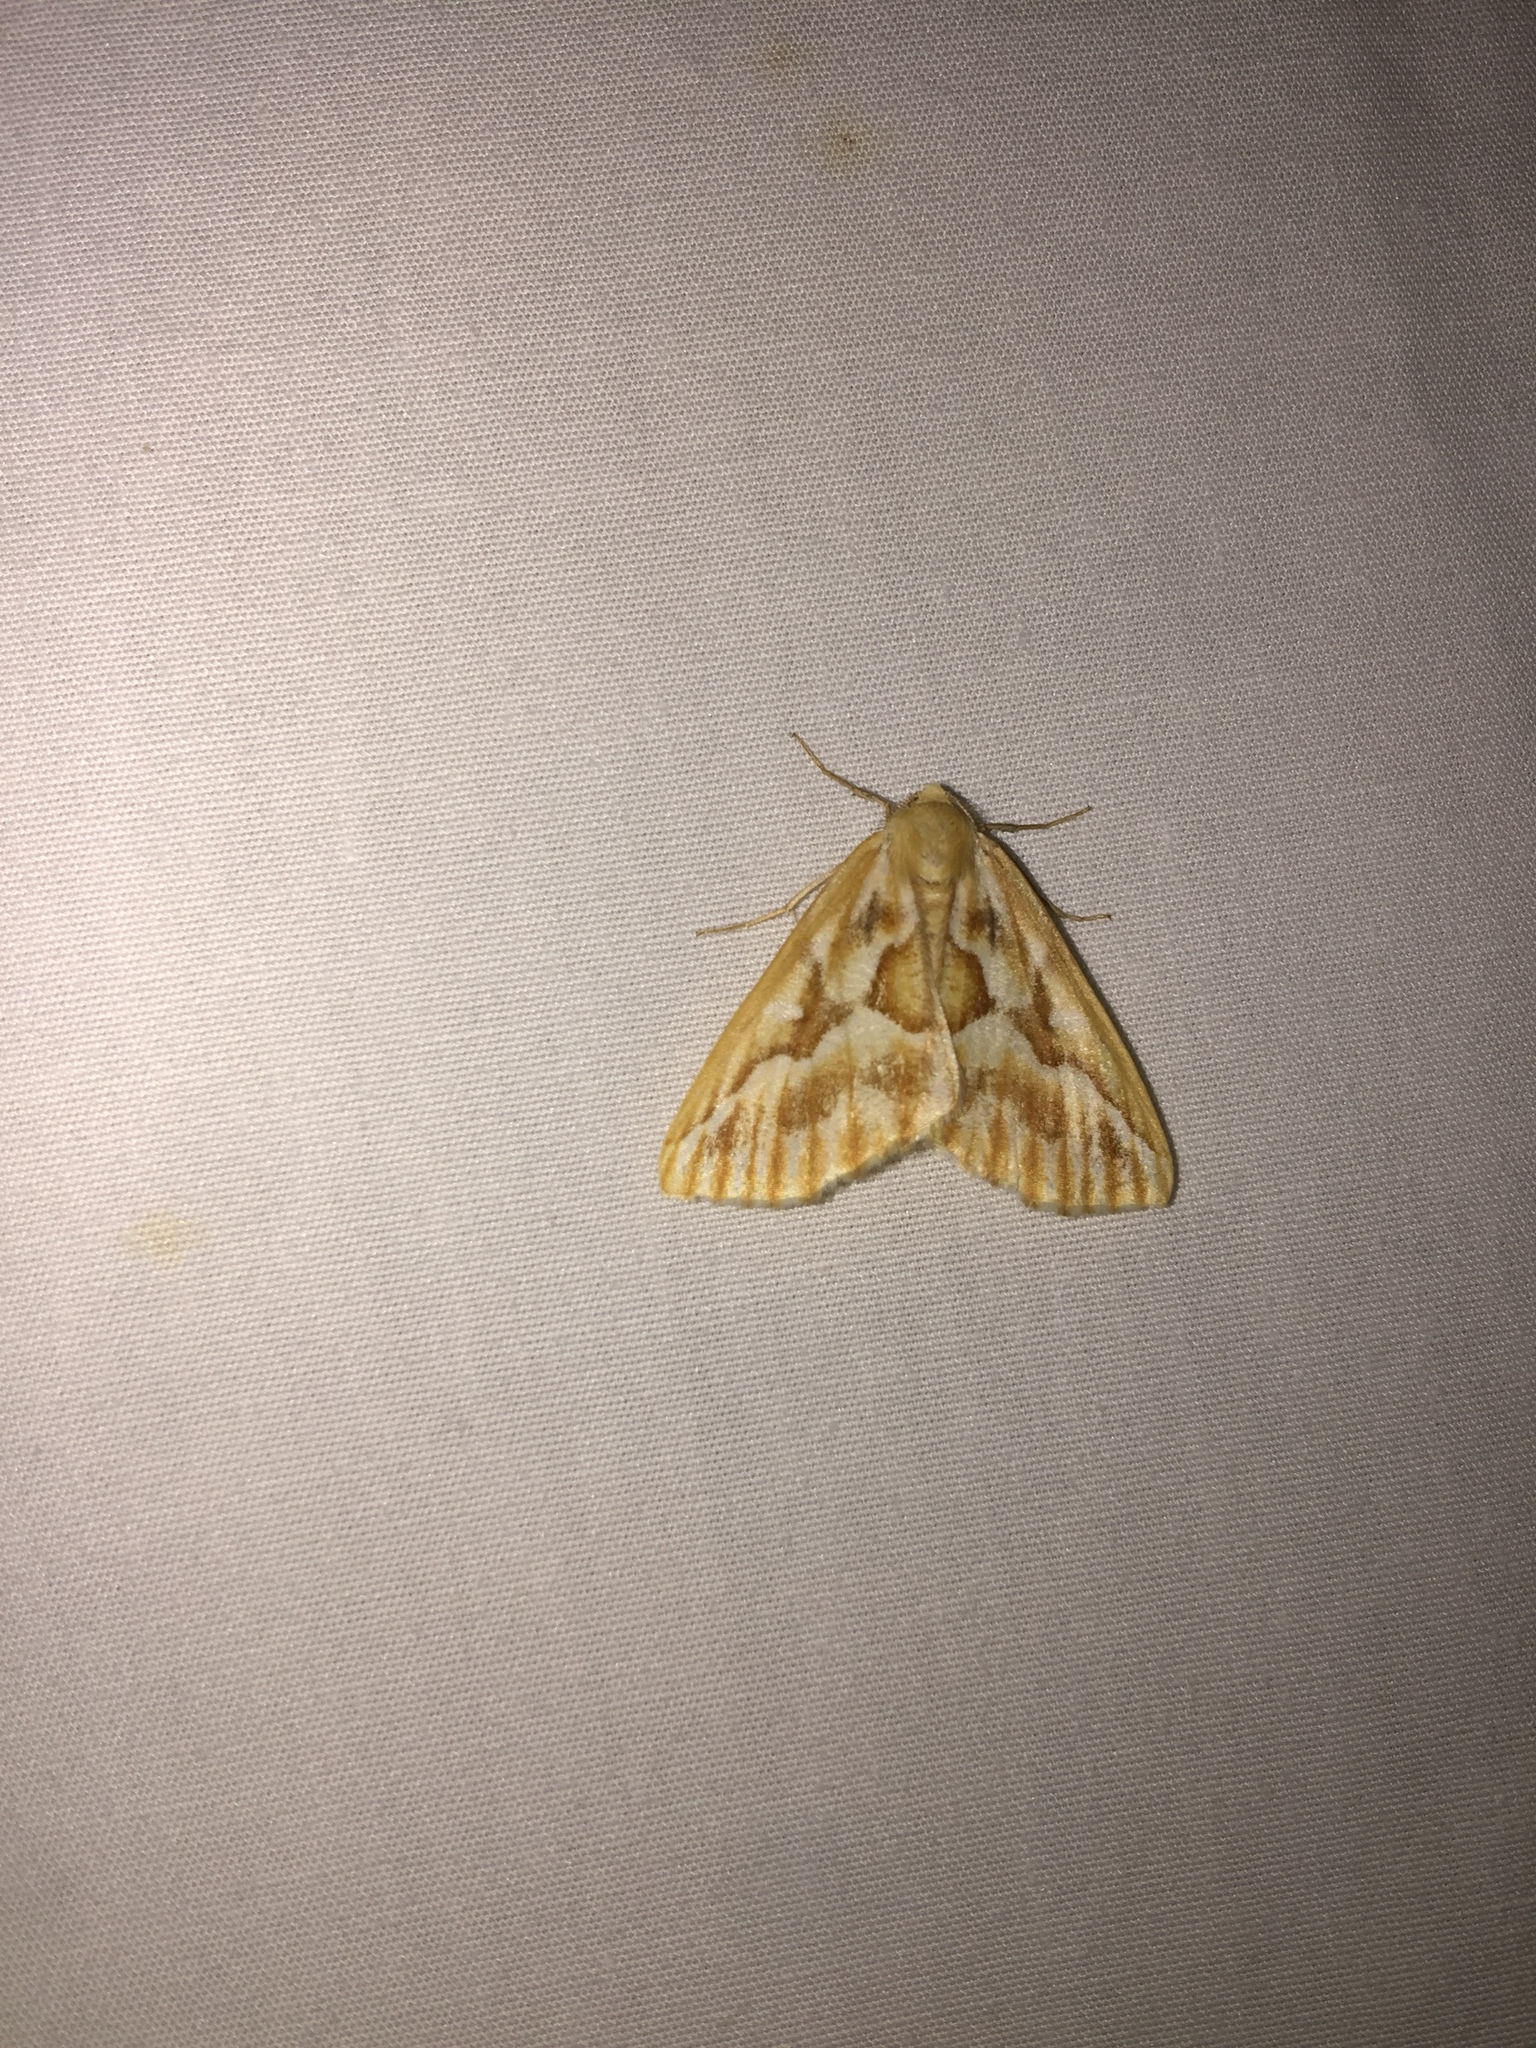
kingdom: Animalia
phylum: Arthropoda
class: Insecta
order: Lepidoptera
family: Geometridae
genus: Caripeta
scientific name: Caripeta piniata
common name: Northern pine looper moth
